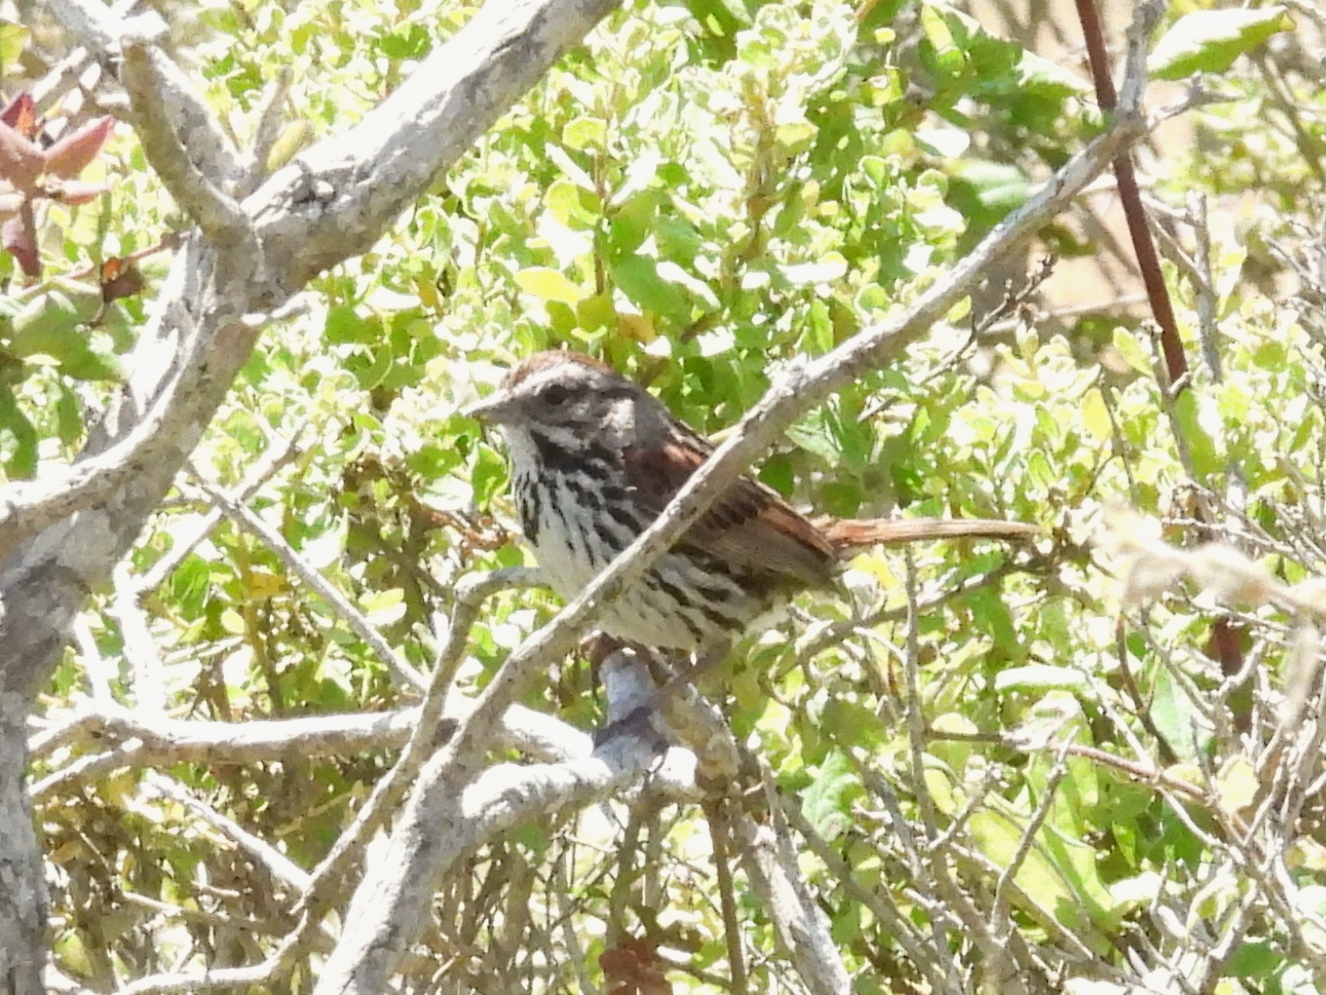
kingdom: Animalia
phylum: Chordata
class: Aves
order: Passeriformes
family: Passerellidae
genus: Melospiza
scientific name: Melospiza melodia
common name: Song sparrow
